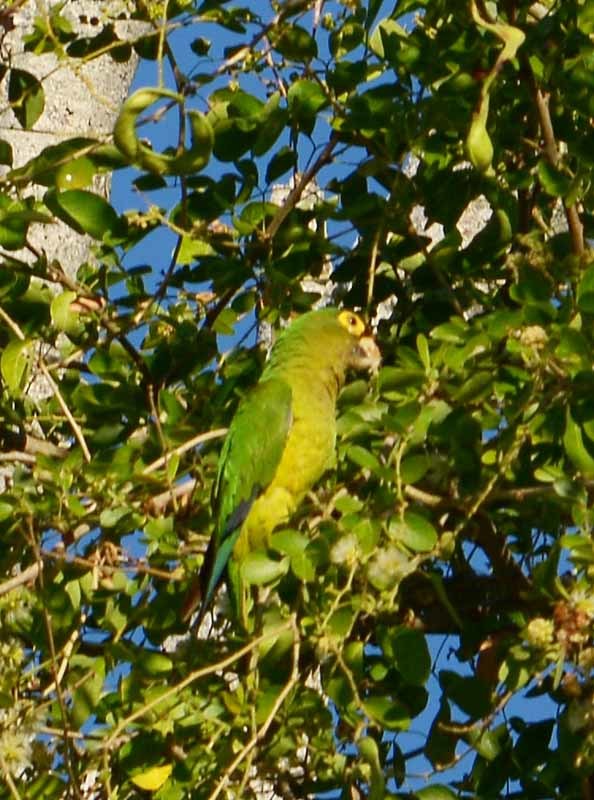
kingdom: Animalia
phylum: Chordata
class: Aves
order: Psittaciformes
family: Psittacidae
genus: Aratinga
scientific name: Aratinga canicularis
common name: Orange-fronted parakeet
